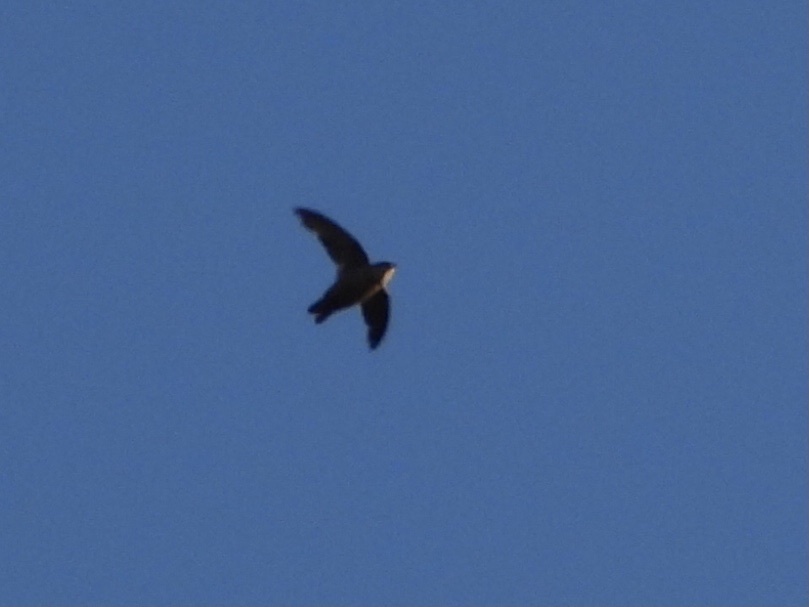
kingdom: Animalia
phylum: Chordata
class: Aves
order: Apodiformes
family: Apodidae
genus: Chaetura
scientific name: Chaetura vauxi
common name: Vaux's swift
